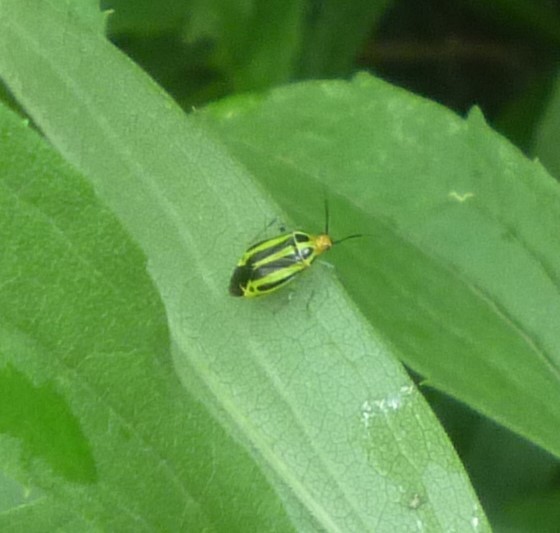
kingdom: Animalia
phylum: Arthropoda
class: Insecta
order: Hemiptera
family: Miridae
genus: Poecilocapsus
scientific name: Poecilocapsus lineatus
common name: Four-lined plant bug
